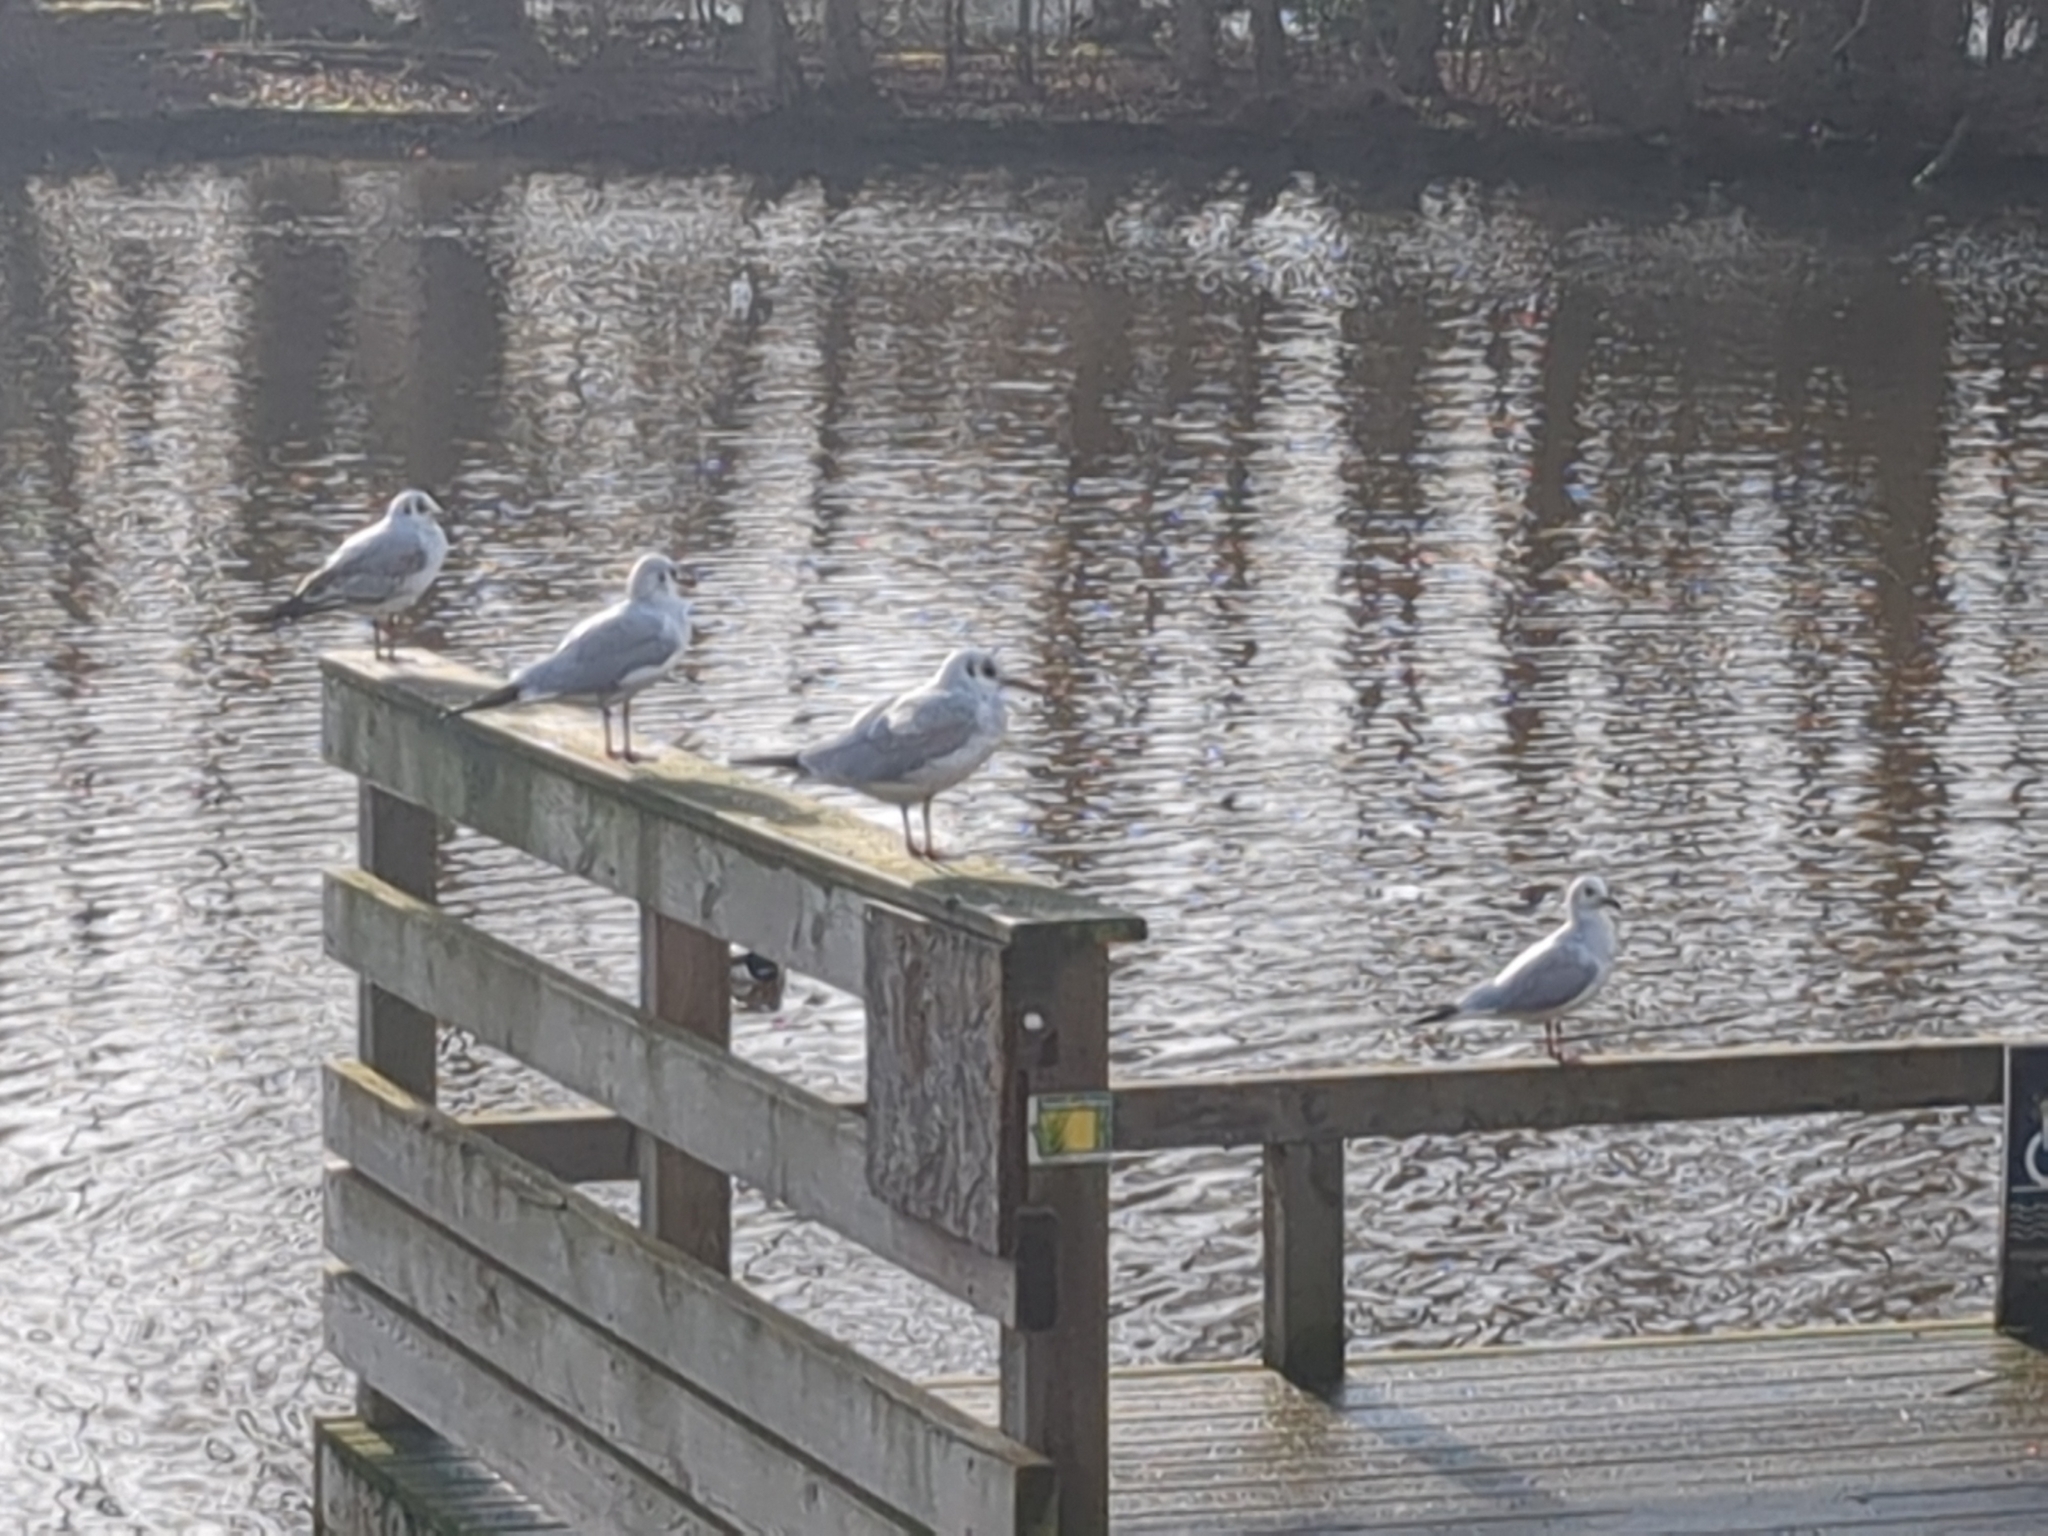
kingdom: Animalia
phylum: Chordata
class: Aves
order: Charadriiformes
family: Laridae
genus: Chroicocephalus
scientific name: Chroicocephalus ridibundus
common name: Black-headed gull
